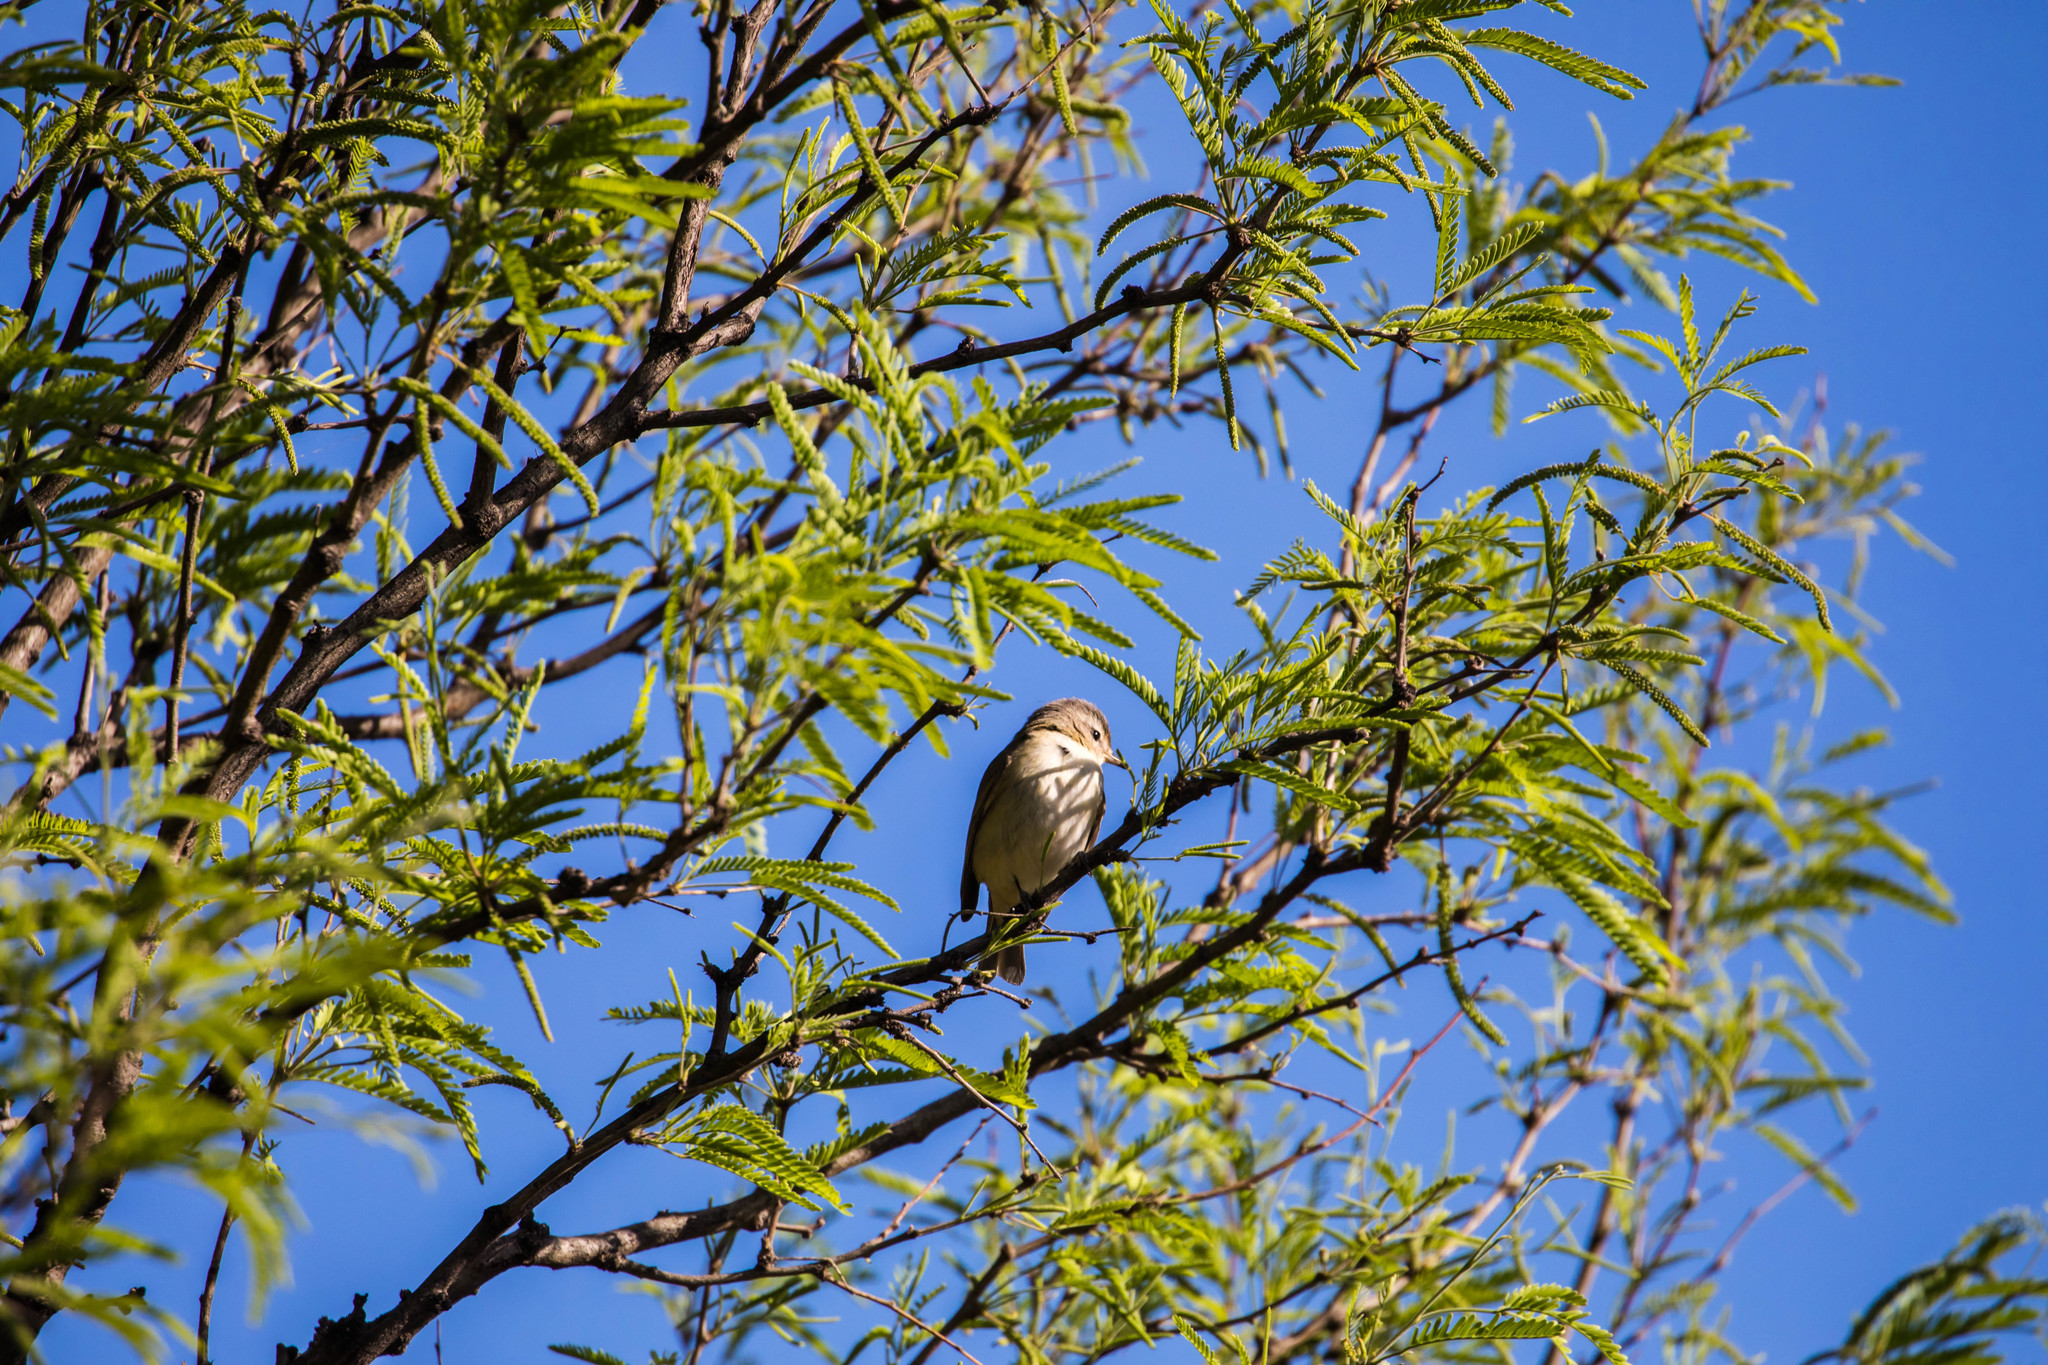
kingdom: Animalia
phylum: Chordata
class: Aves
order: Passeriformes
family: Vireonidae
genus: Vireo
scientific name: Vireo gilvus
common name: Warbling vireo
